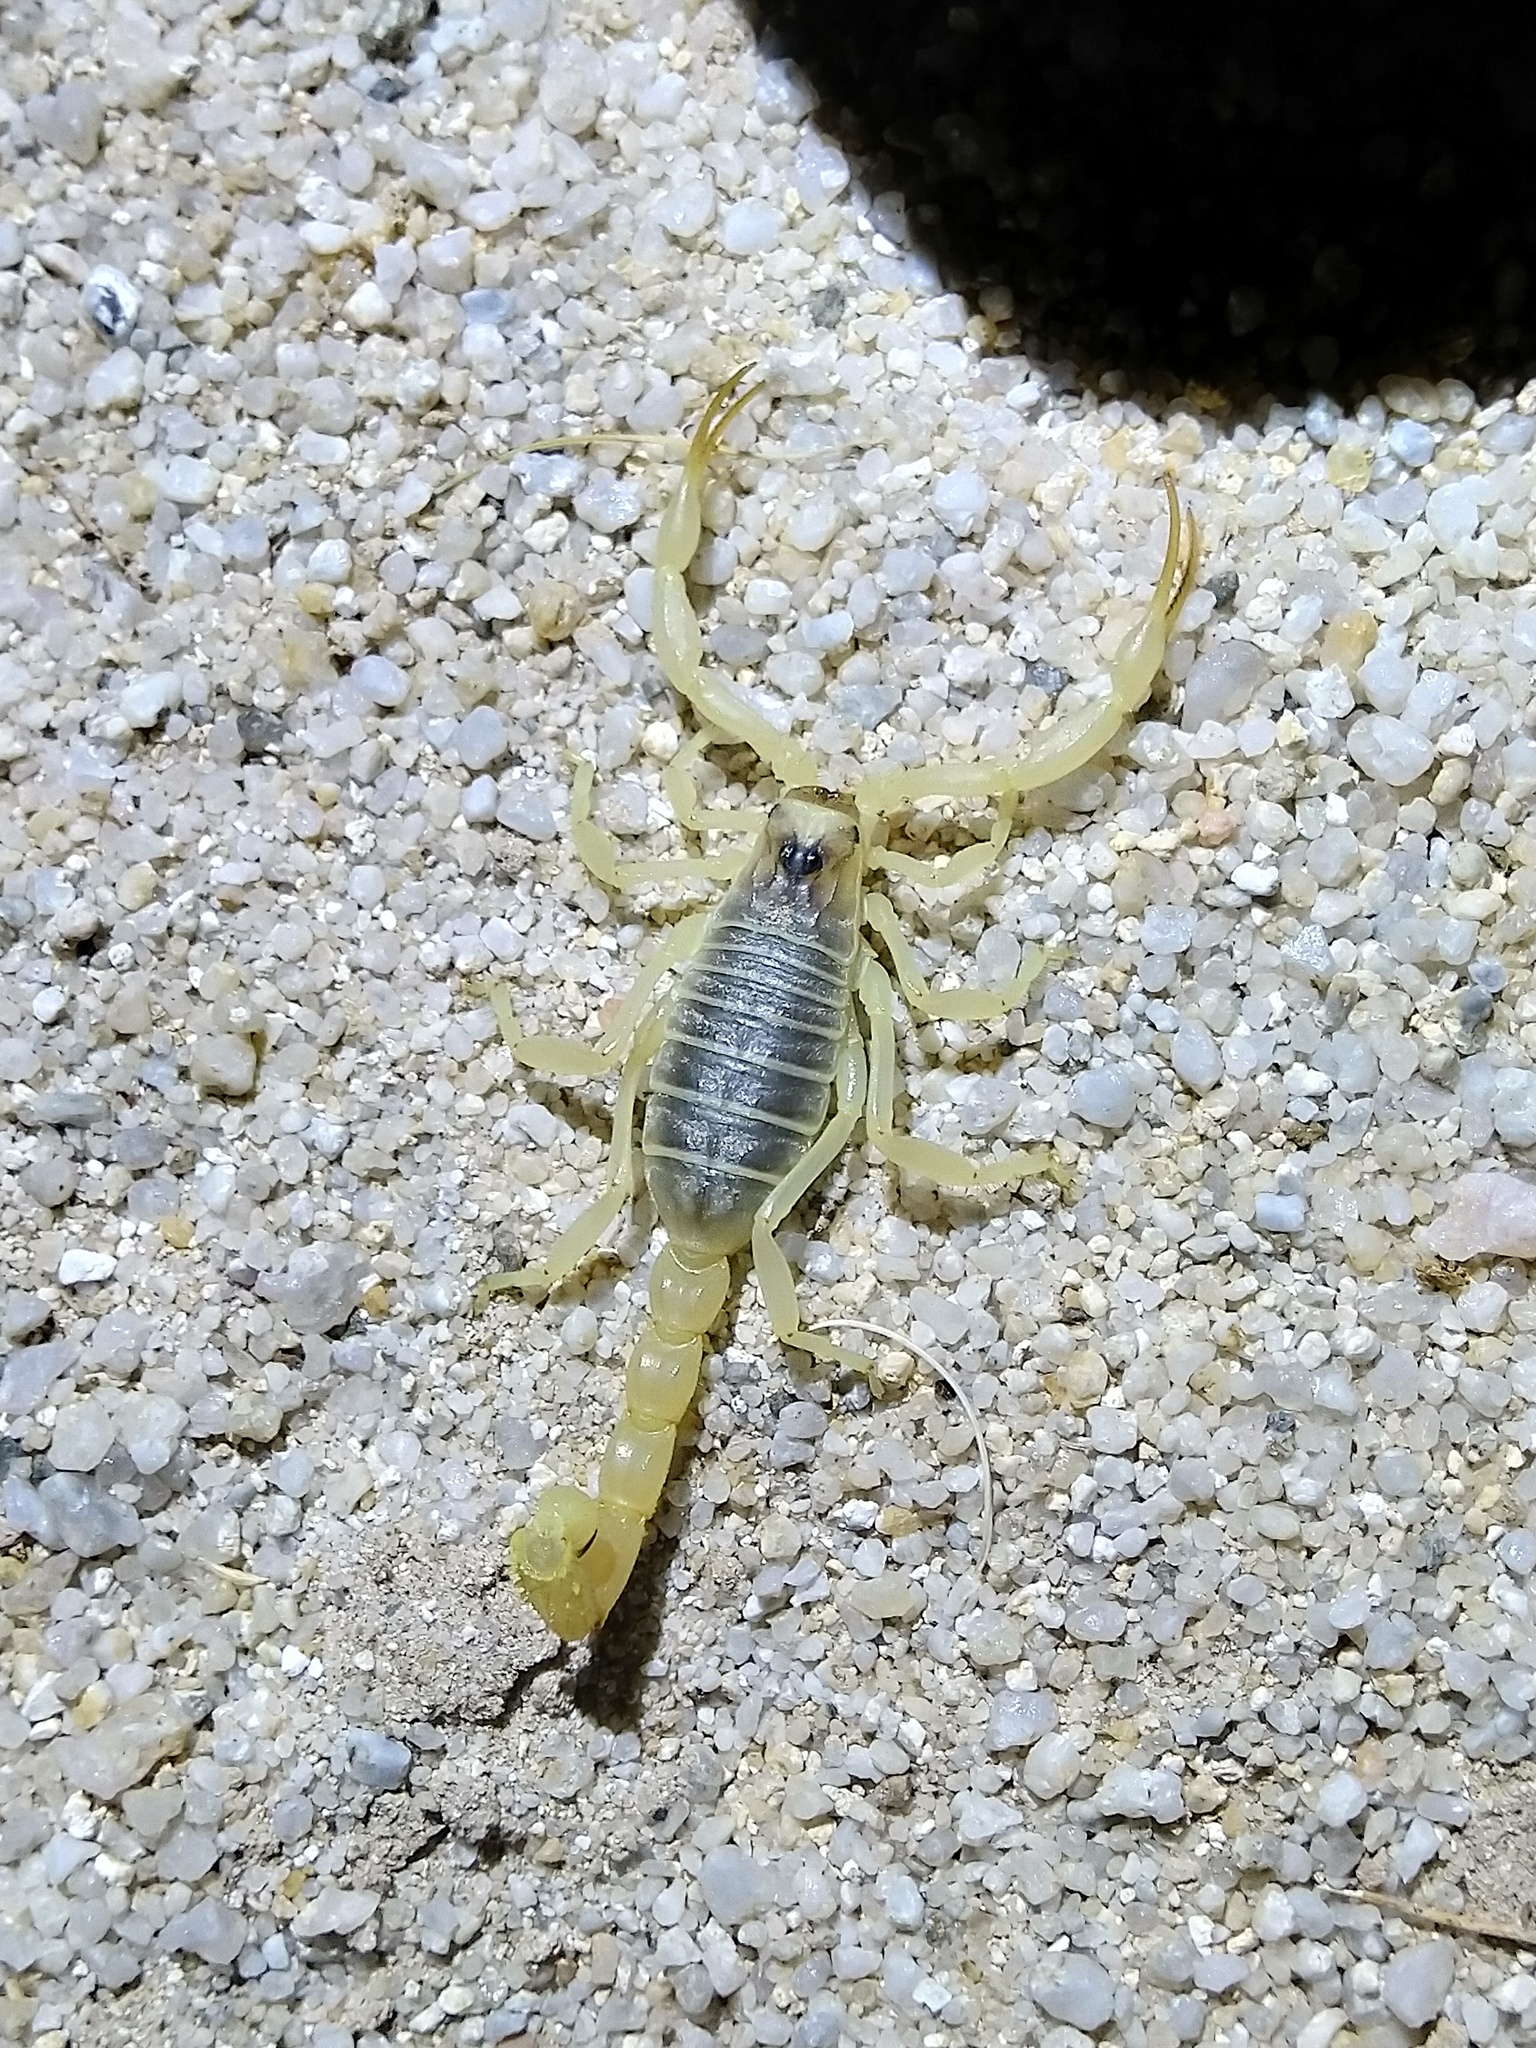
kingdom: Animalia
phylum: Arthropoda
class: Arachnida
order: Scorpiones
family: Buthidae
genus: Odontobuthus
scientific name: Odontobuthus kermanus
